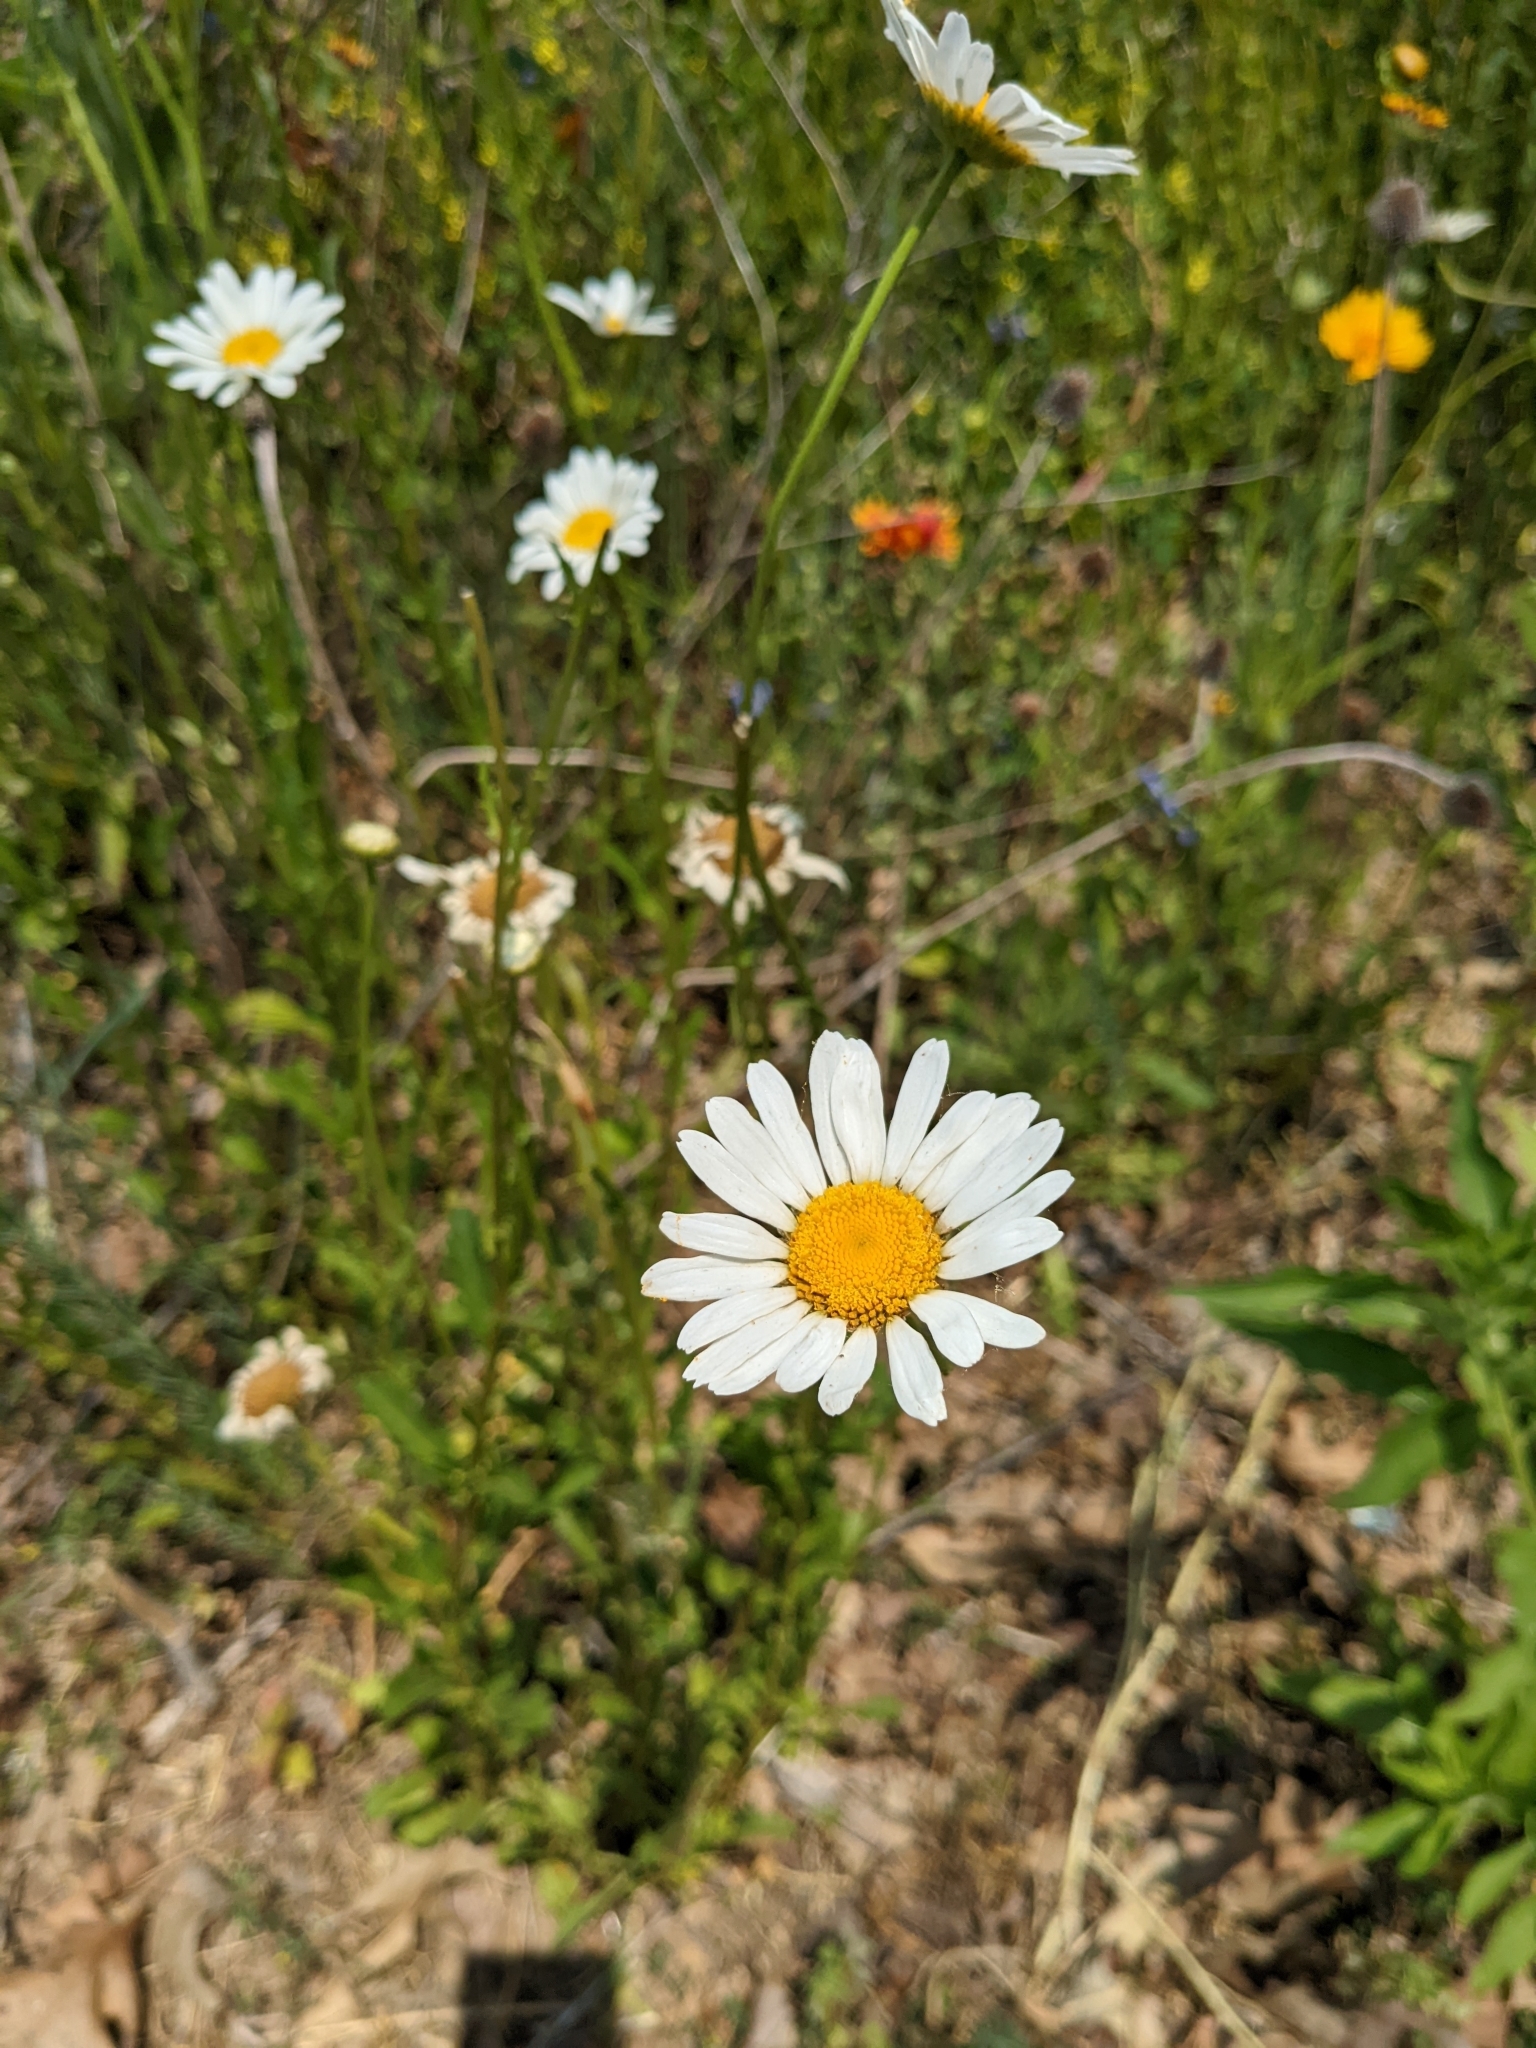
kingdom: Plantae
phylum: Tracheophyta
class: Magnoliopsida
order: Asterales
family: Asteraceae
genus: Leucanthemum
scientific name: Leucanthemum vulgare
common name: Oxeye daisy
